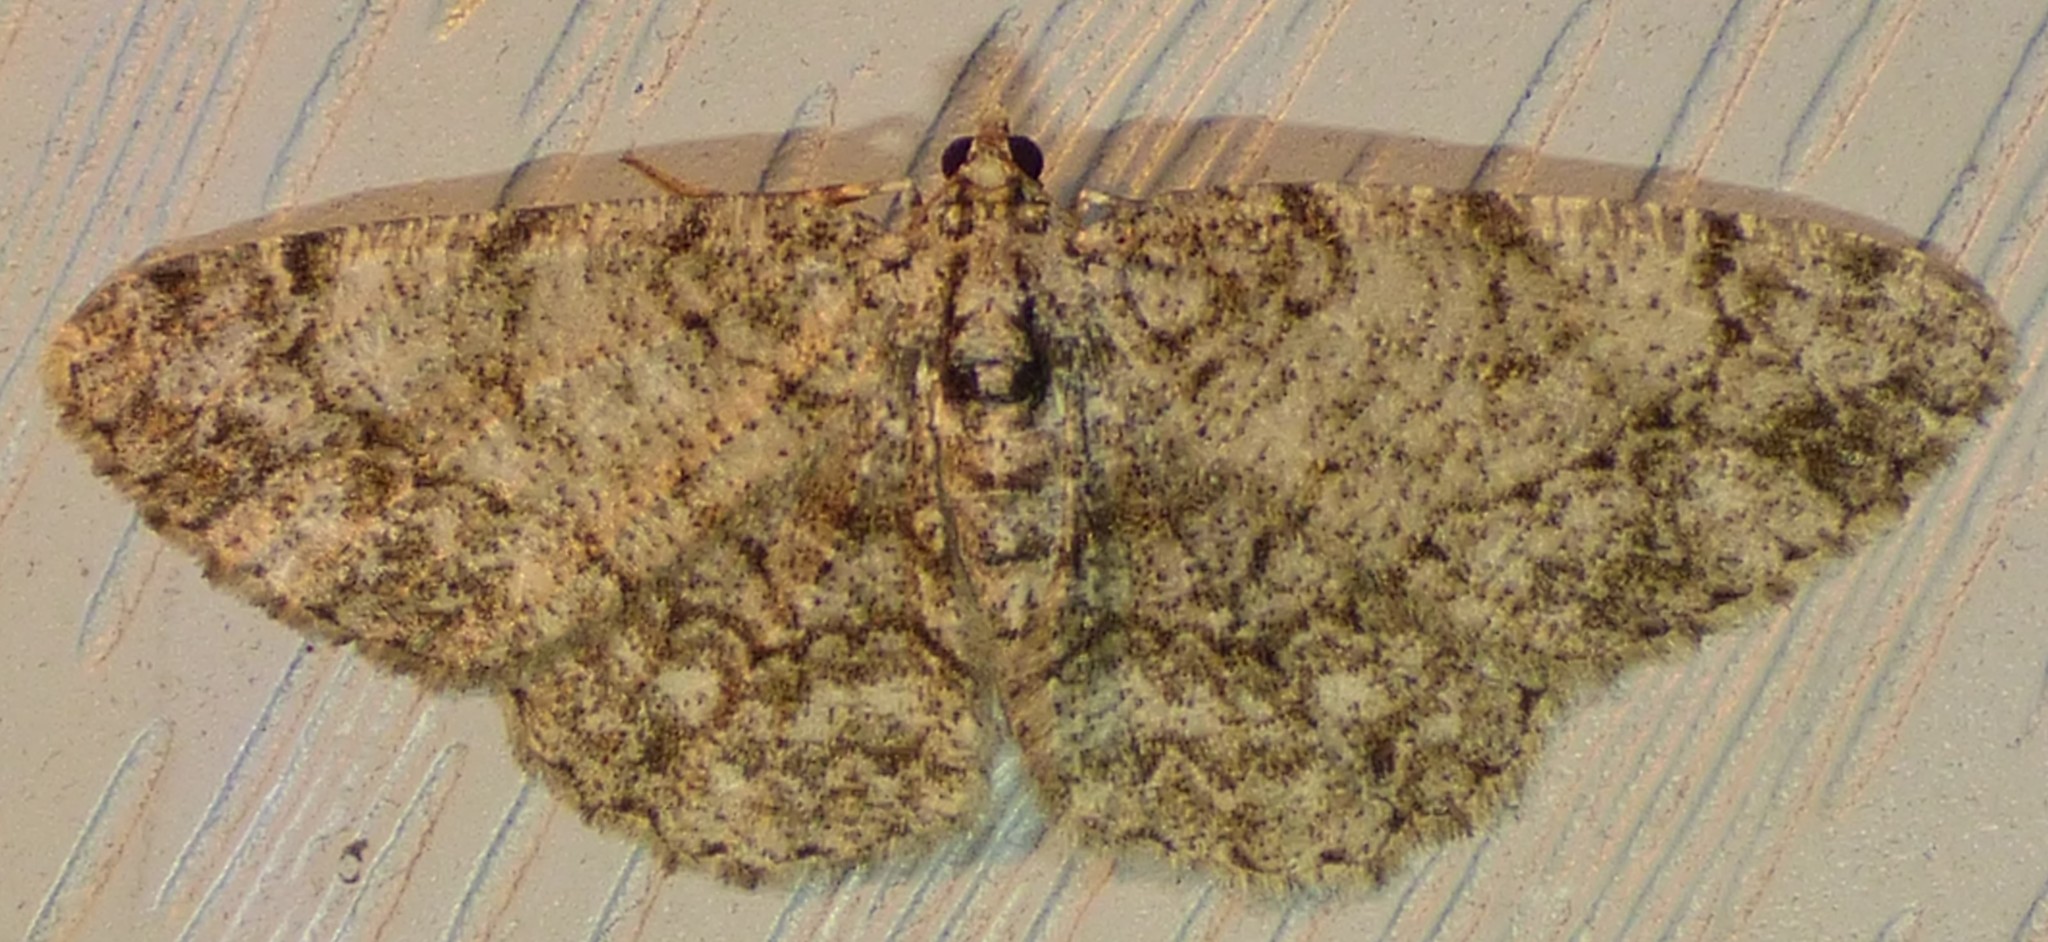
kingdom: Animalia
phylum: Arthropoda
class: Insecta
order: Lepidoptera
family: Geometridae
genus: Protoboarmia
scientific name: Protoboarmia porcelaria
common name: Porcelain gray
